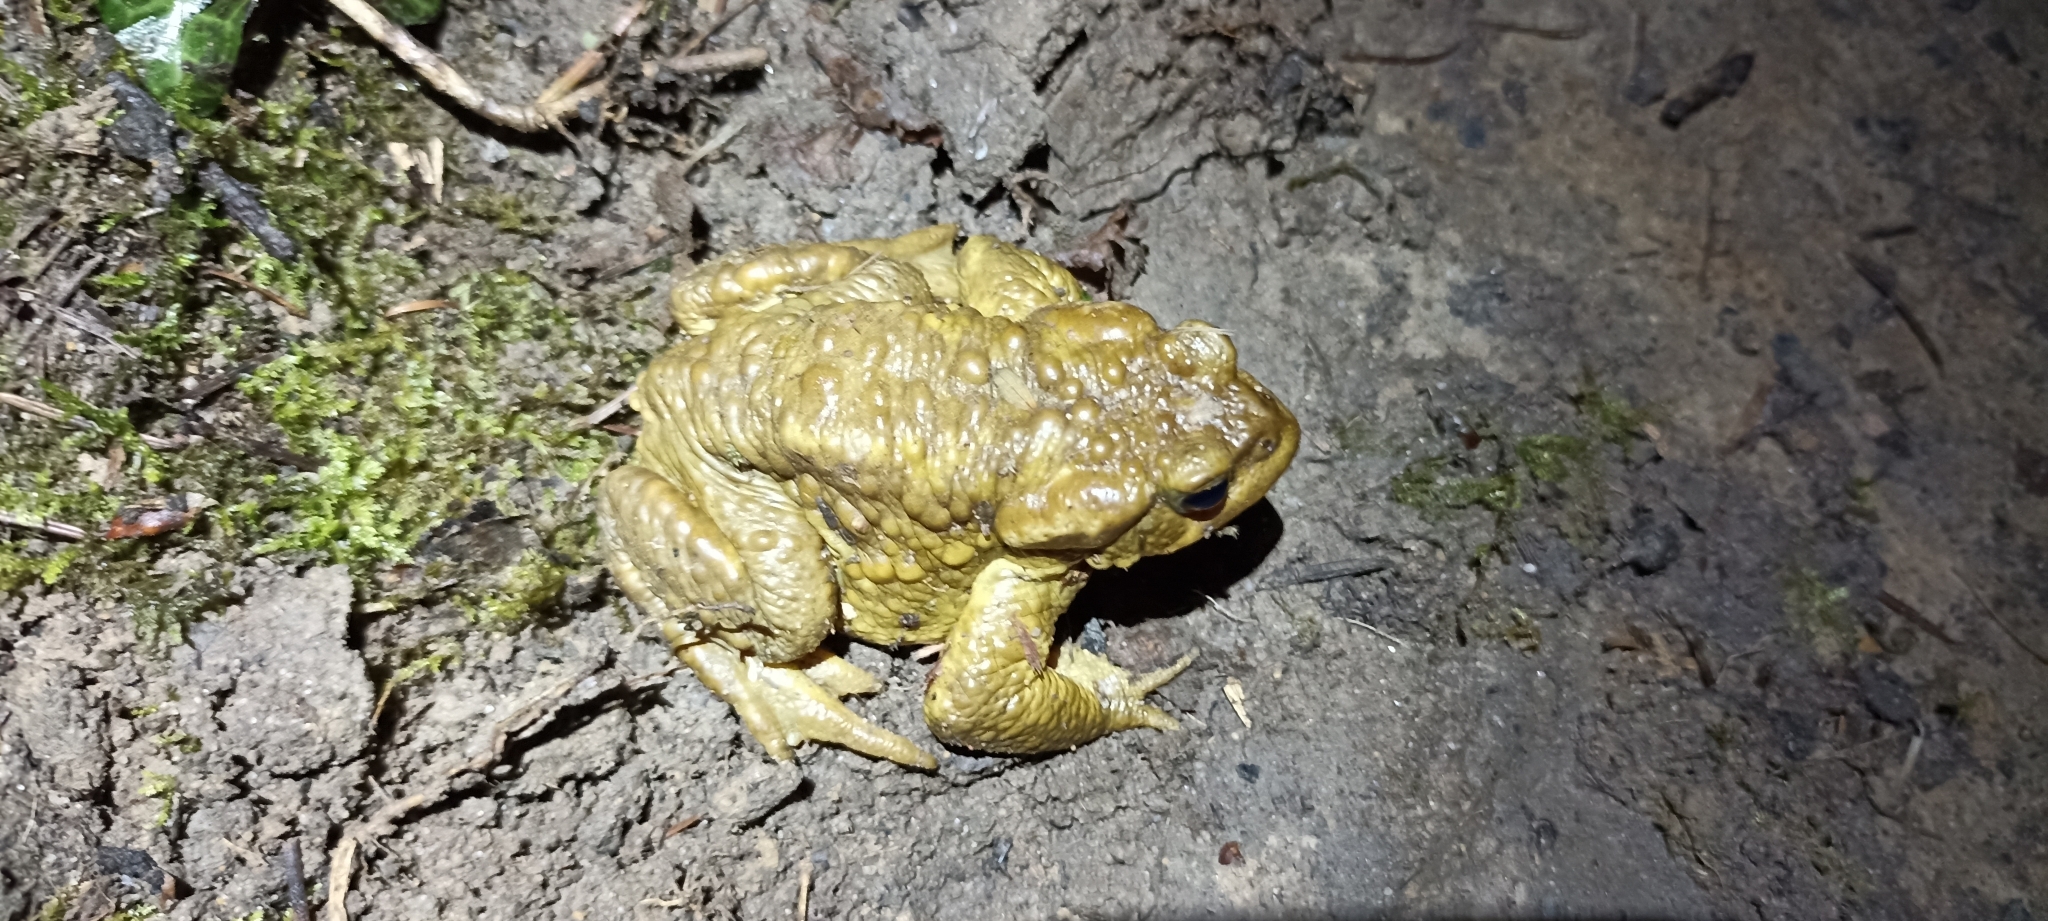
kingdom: Animalia
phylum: Chordata
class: Amphibia
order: Anura
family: Bufonidae
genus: Bufo
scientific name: Bufo spinosus
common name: Western common toad
